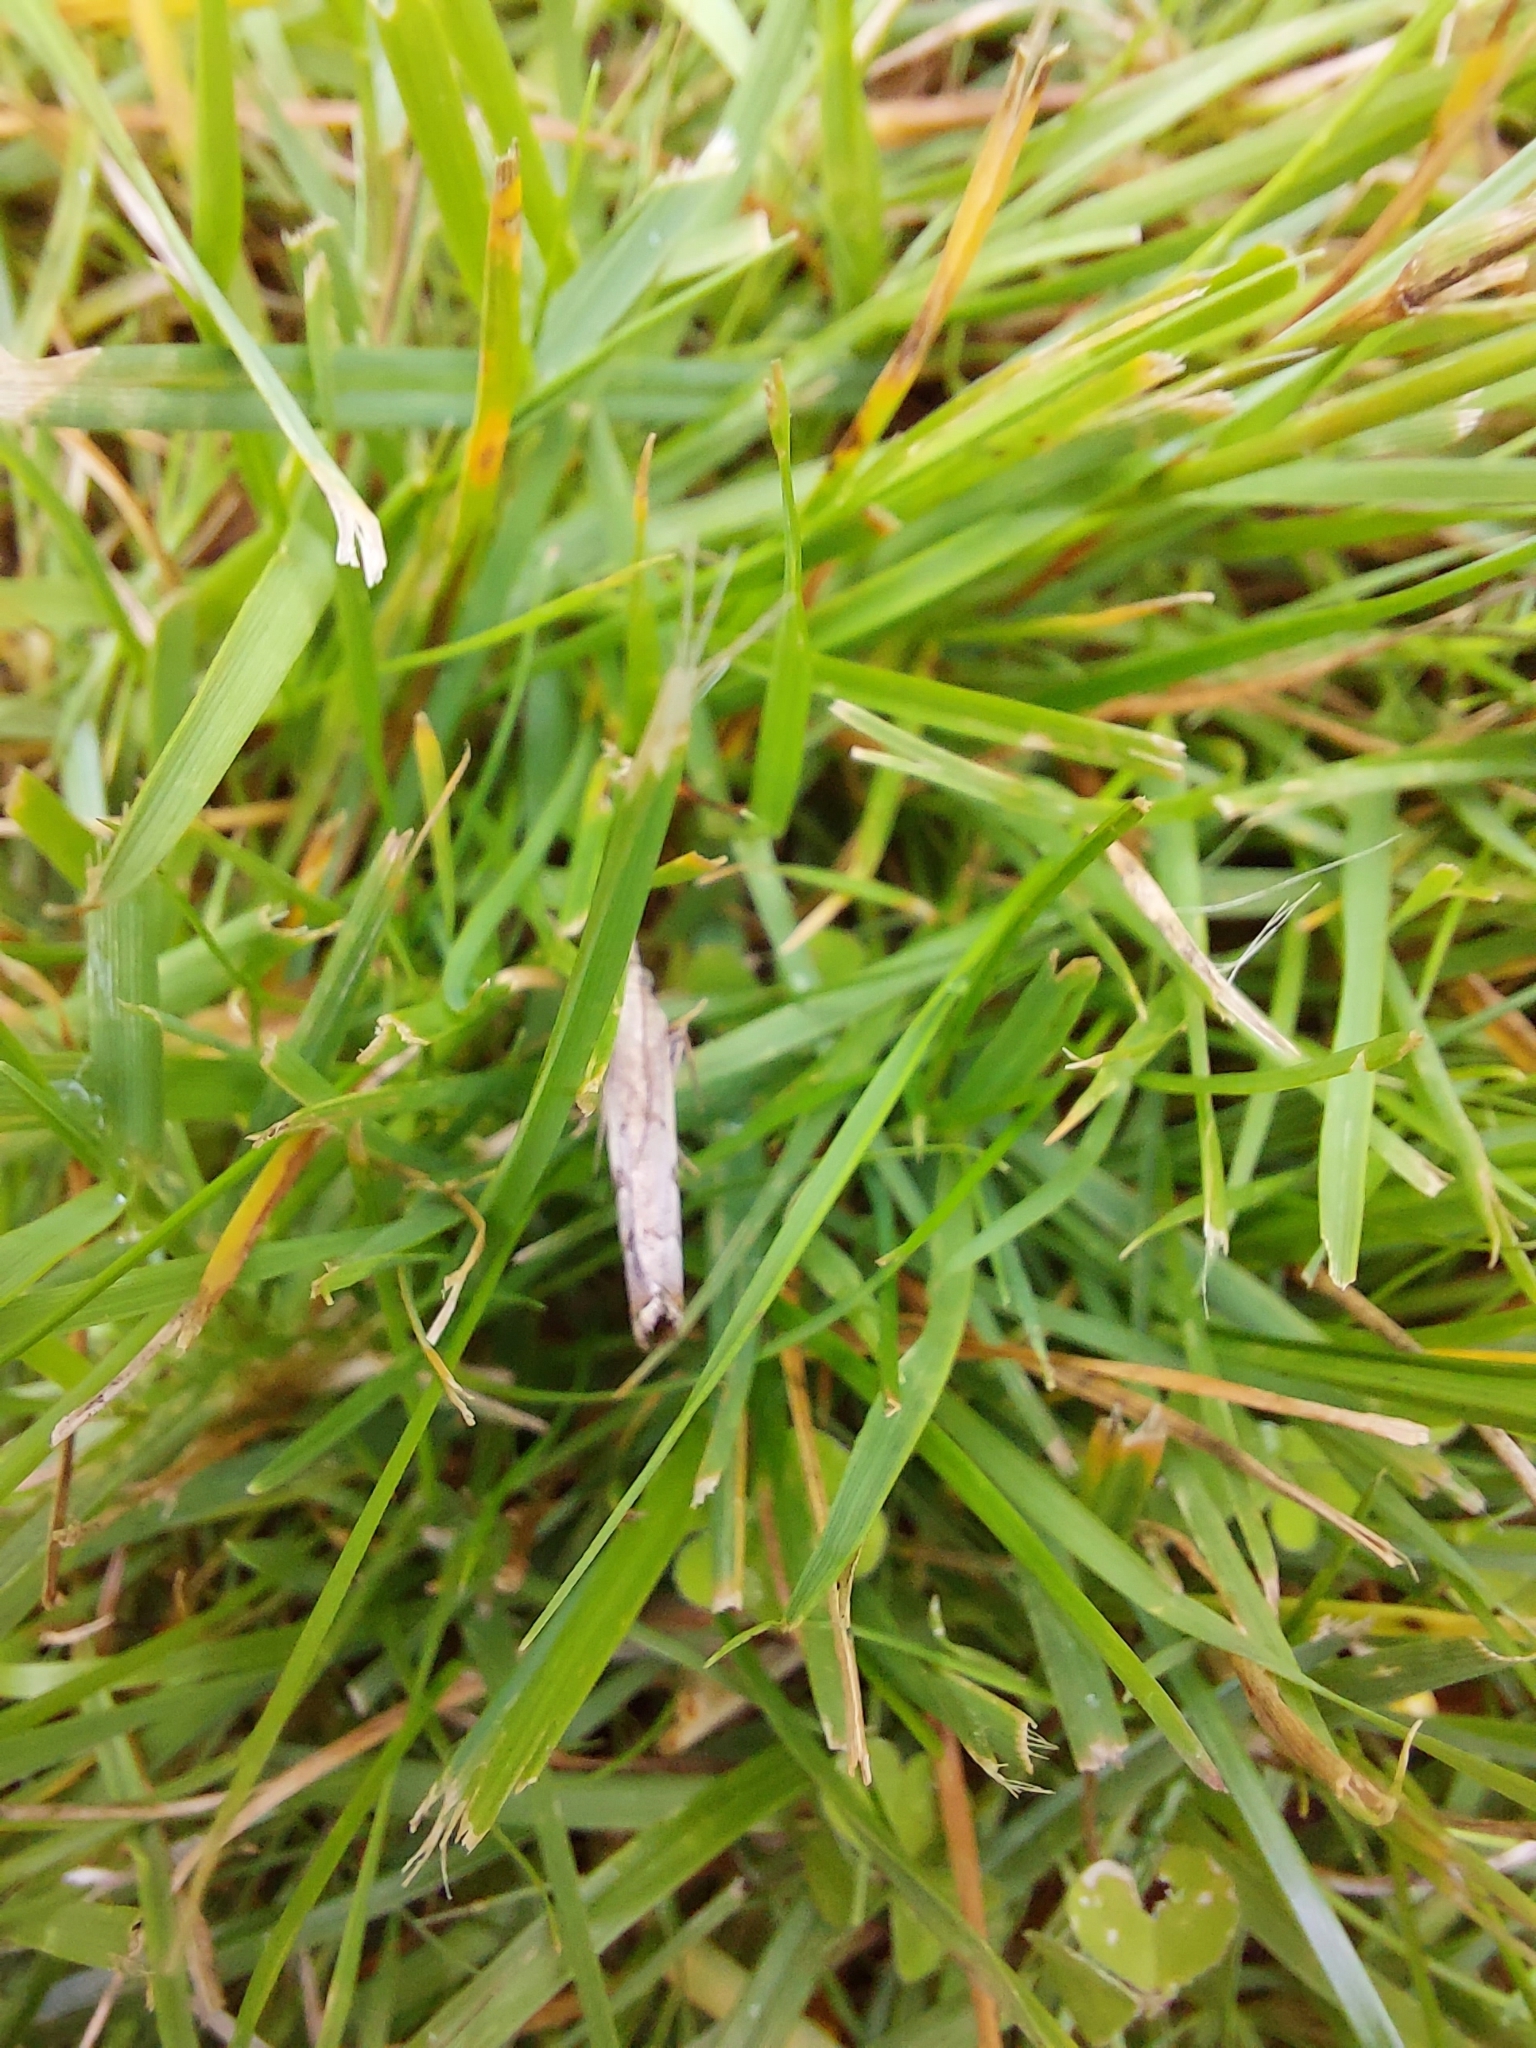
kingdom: Animalia
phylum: Arthropoda
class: Insecta
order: Lepidoptera
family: Crambidae
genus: Agriphila
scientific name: Agriphila geniculea
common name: Elbow-stripe grass-veneer
